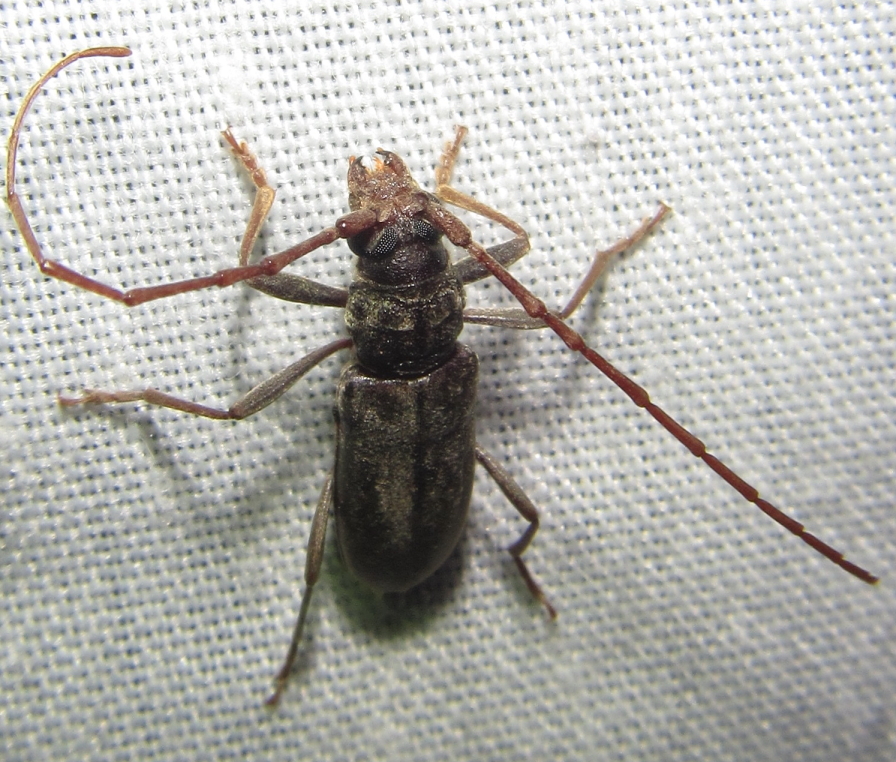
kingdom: Animalia
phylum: Arthropoda
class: Insecta
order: Coleoptera
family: Cerambycidae
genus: Pachydissus
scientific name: Pachydissus furvus
